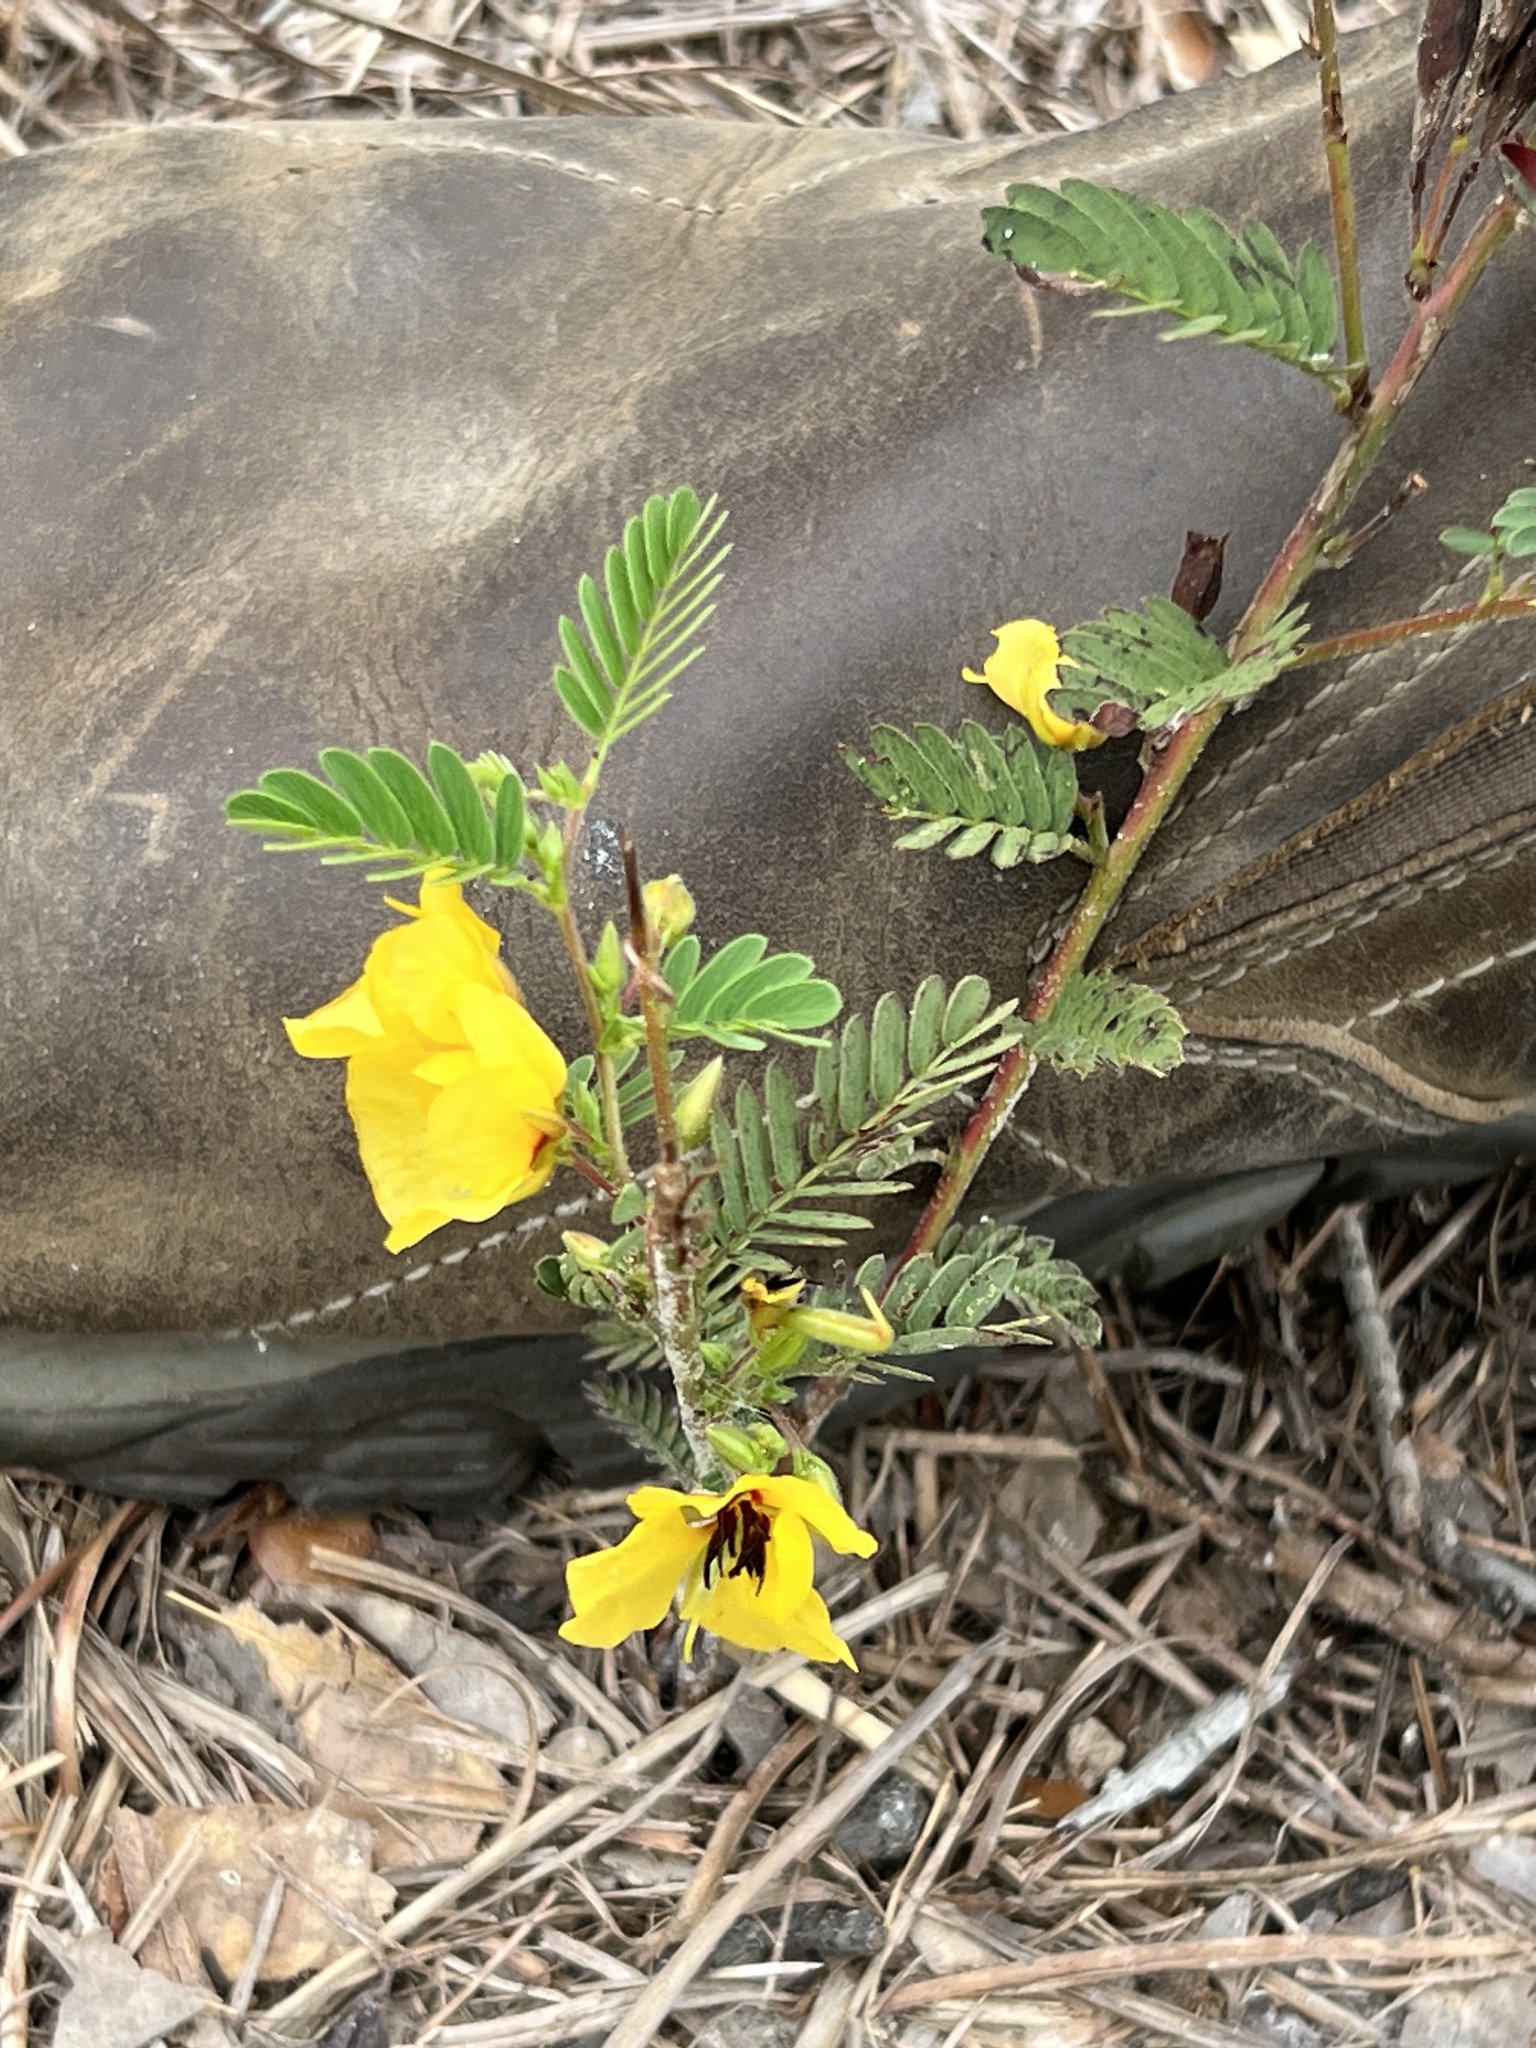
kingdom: Plantae
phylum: Tracheophyta
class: Magnoliopsida
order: Fabales
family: Fabaceae
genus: Chamaecrista
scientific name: Chamaecrista fasciculata
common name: Golden cassia
